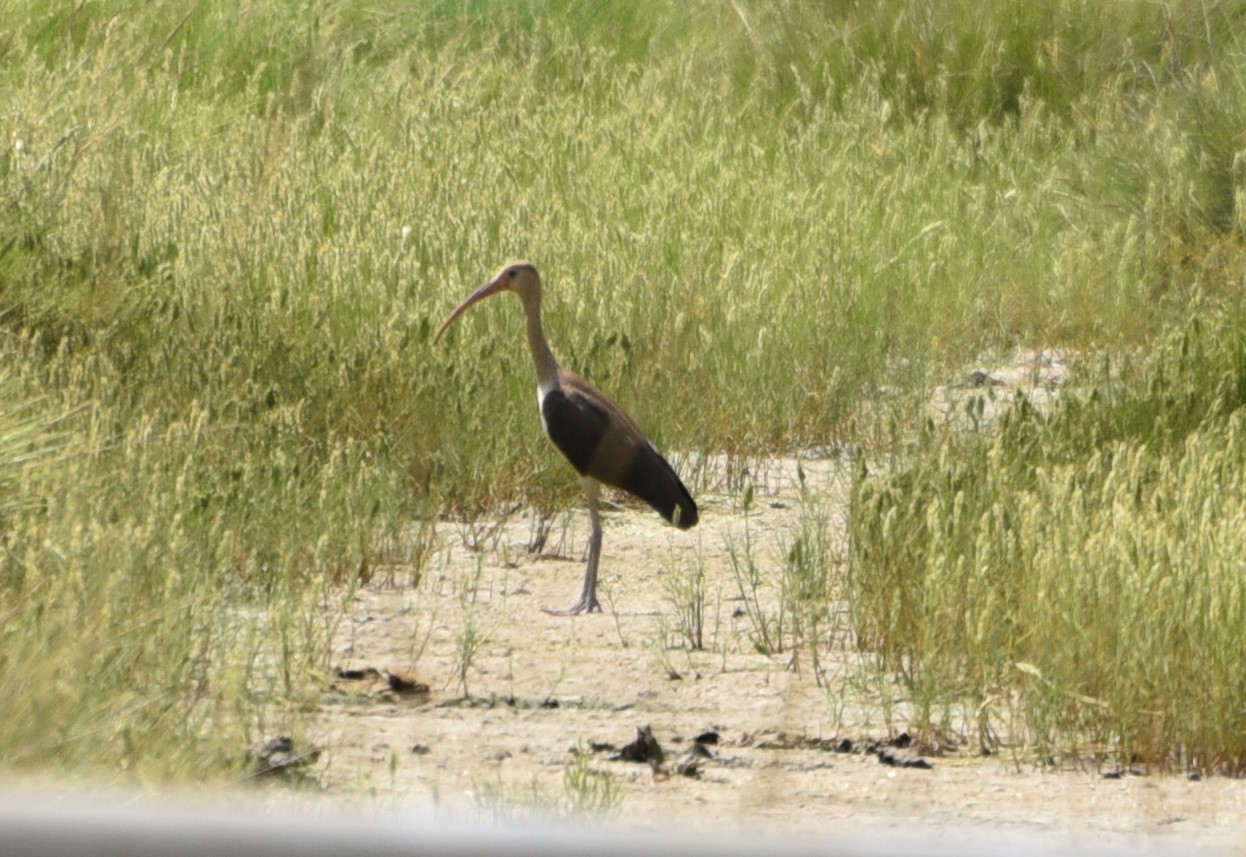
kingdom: Animalia
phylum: Chordata
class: Aves
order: Pelecaniformes
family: Threskiornithidae
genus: Eudocimus
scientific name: Eudocimus albus
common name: White ibis
